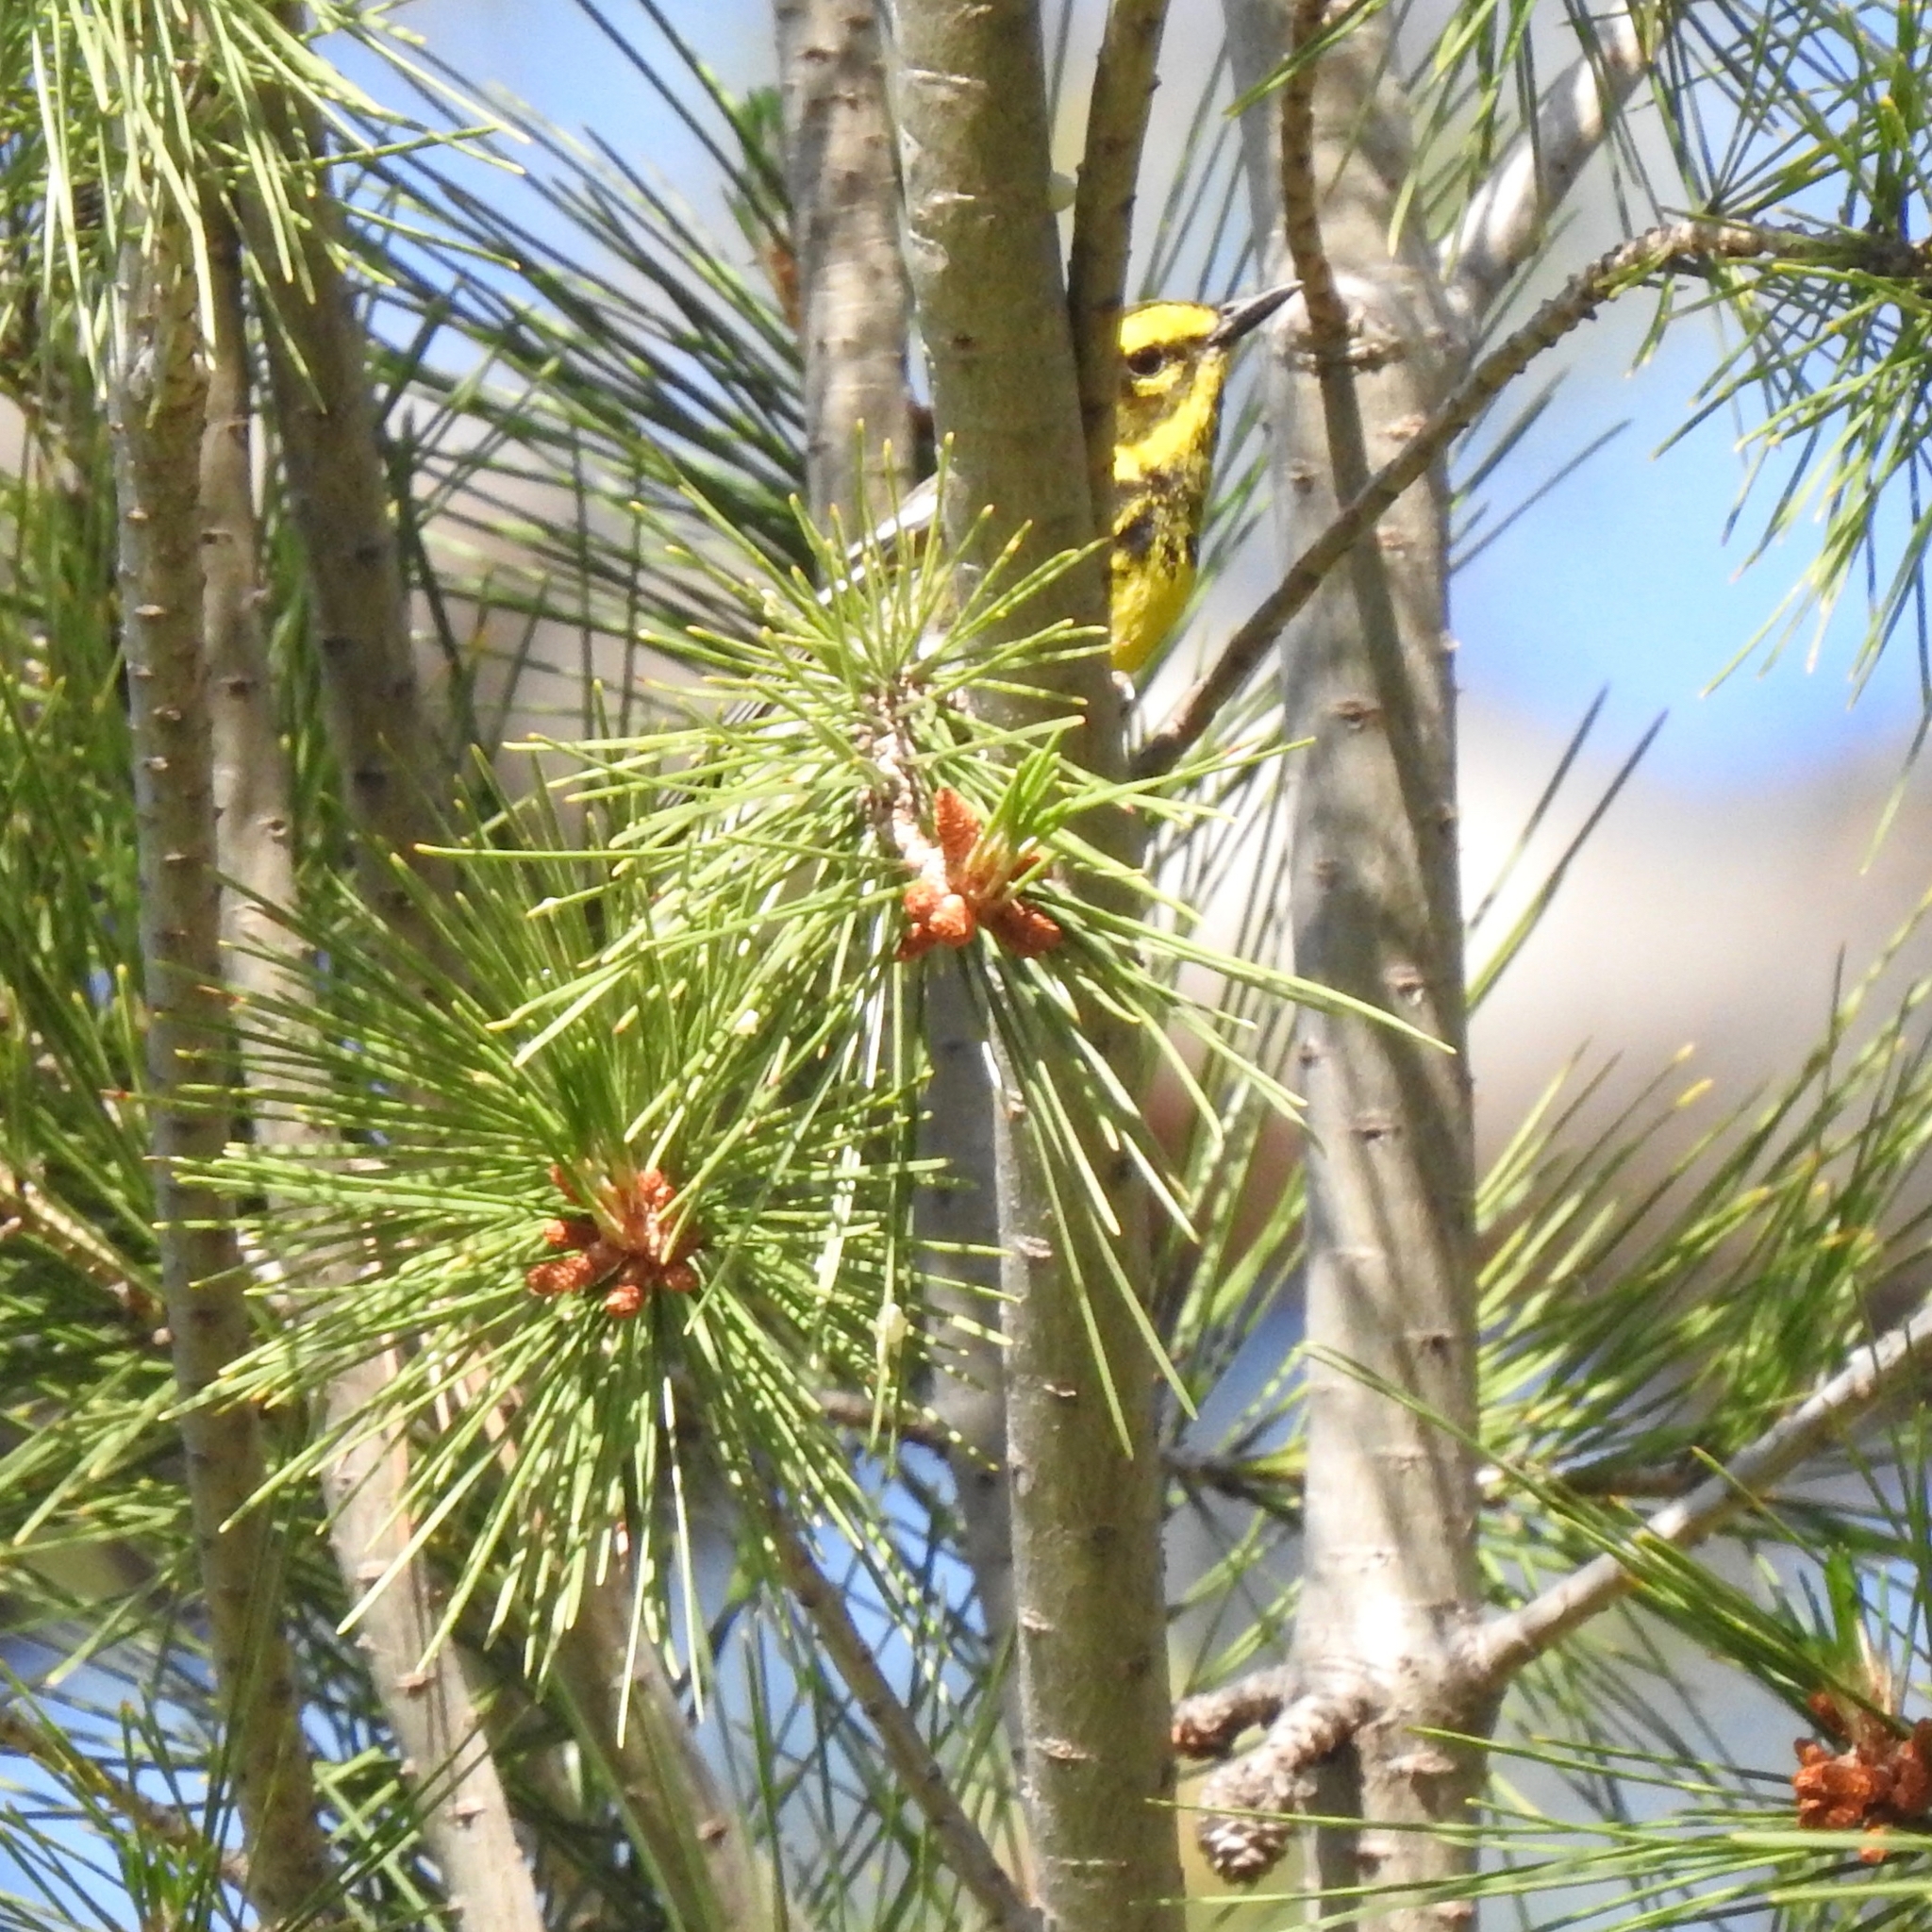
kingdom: Animalia
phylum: Chordata
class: Aves
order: Passeriformes
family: Parulidae
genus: Setophaga
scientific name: Setophaga townsendi
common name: Townsend's warbler
